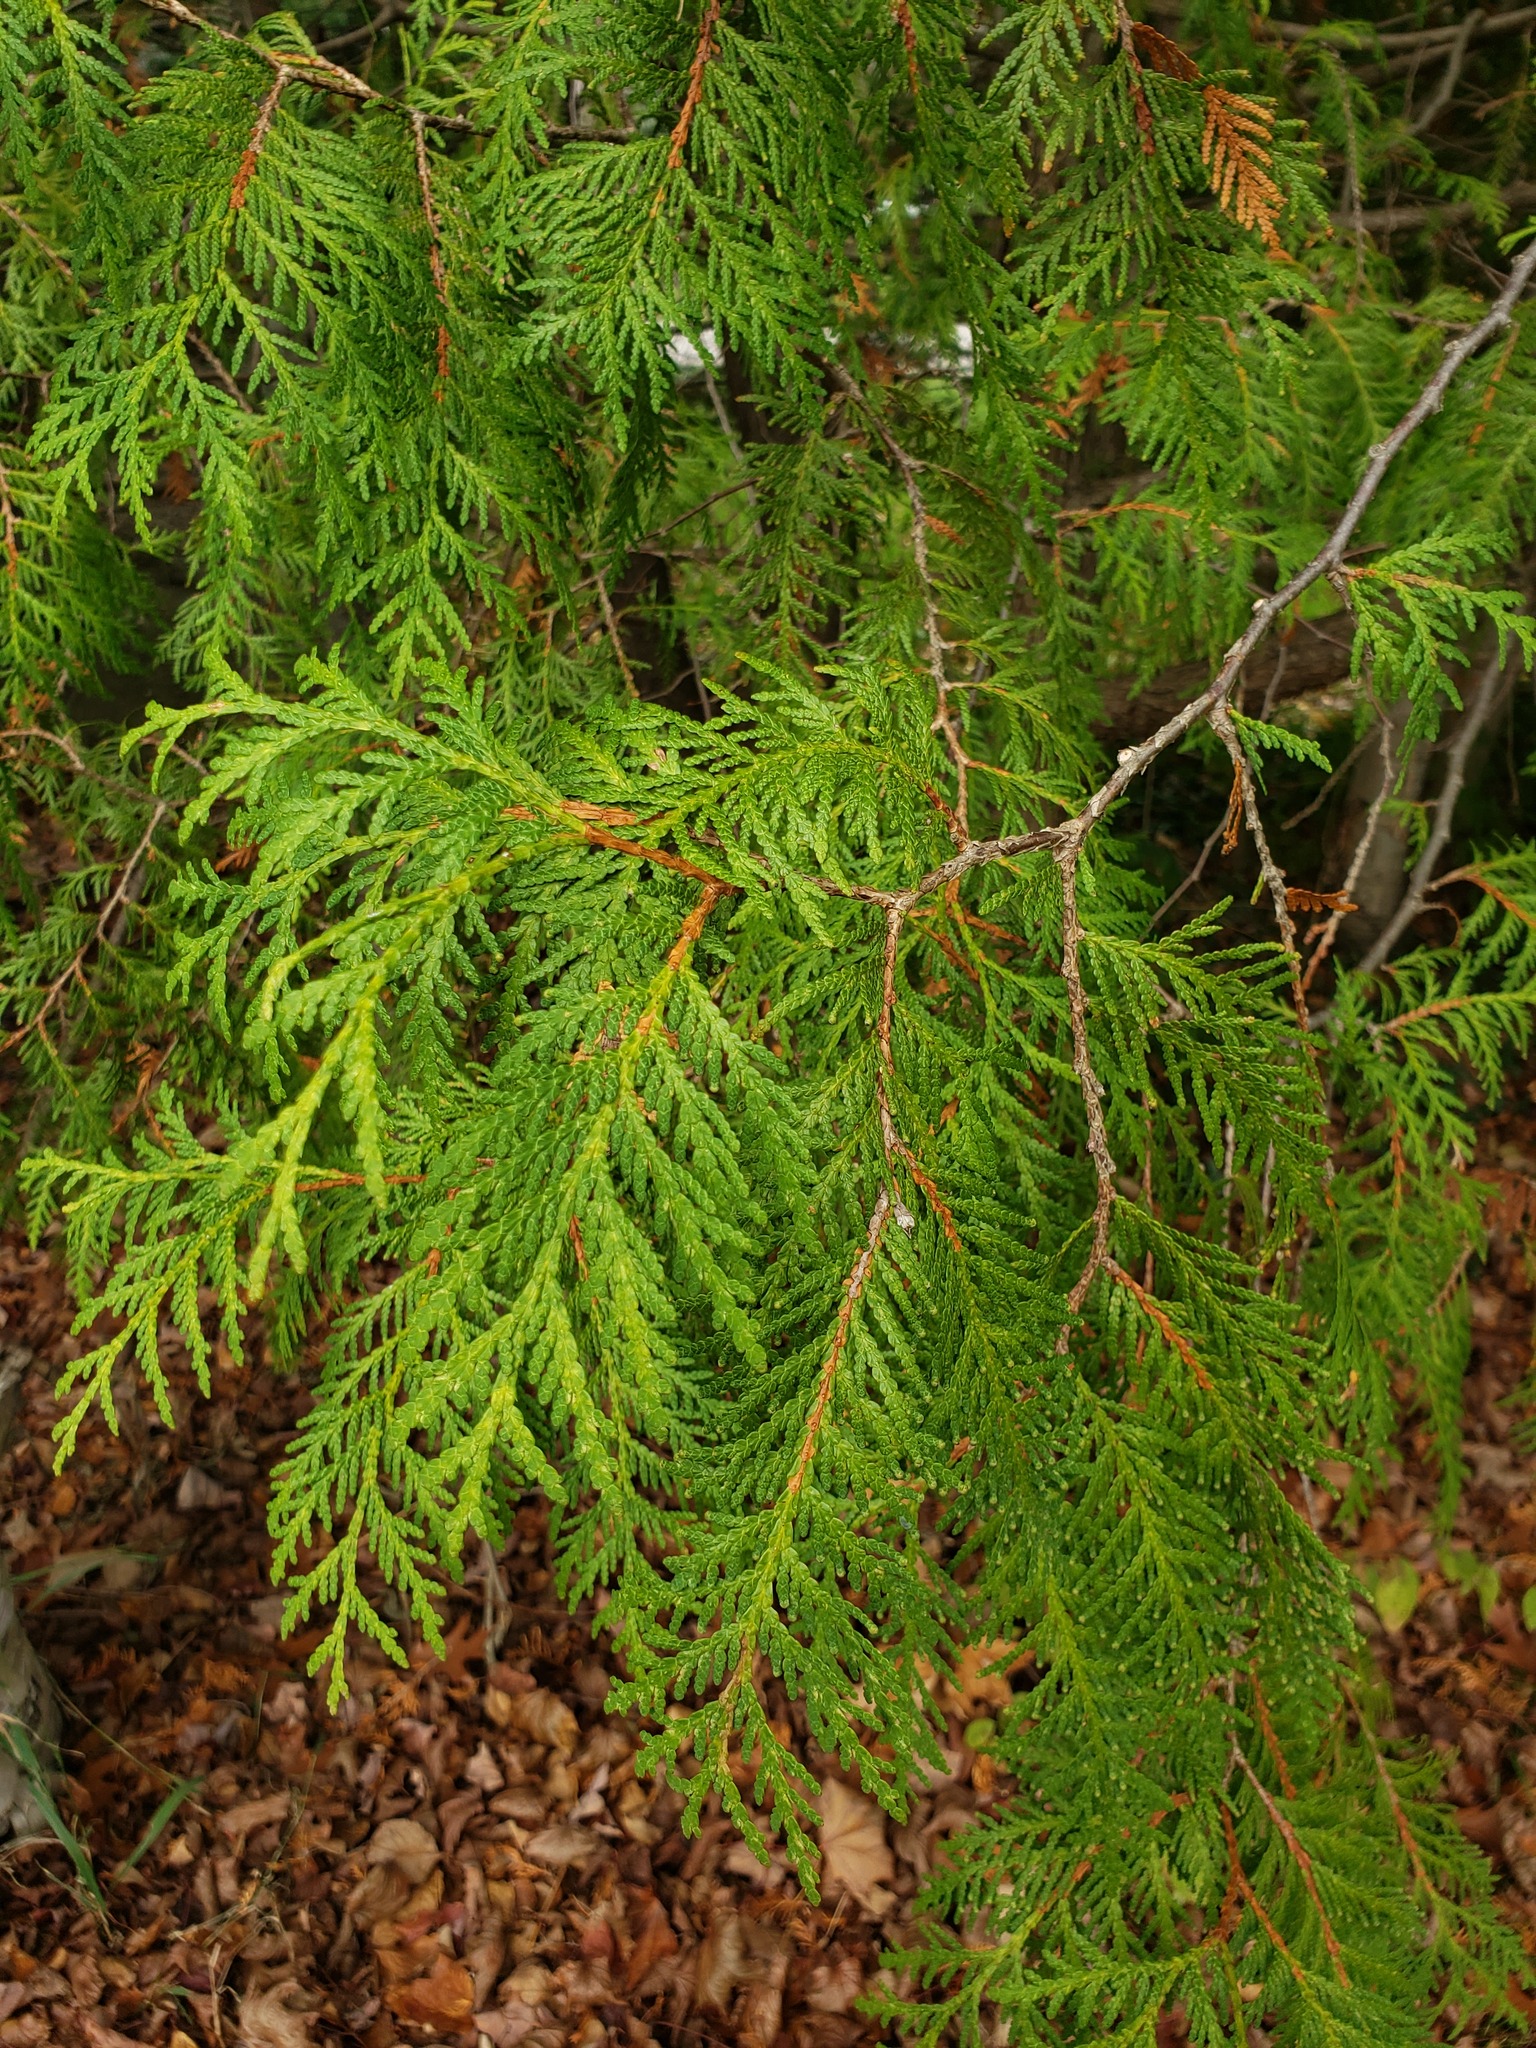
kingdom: Plantae
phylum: Tracheophyta
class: Pinopsida
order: Pinales
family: Cupressaceae
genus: Thuja
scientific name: Thuja occidentalis
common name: Northern white-cedar
